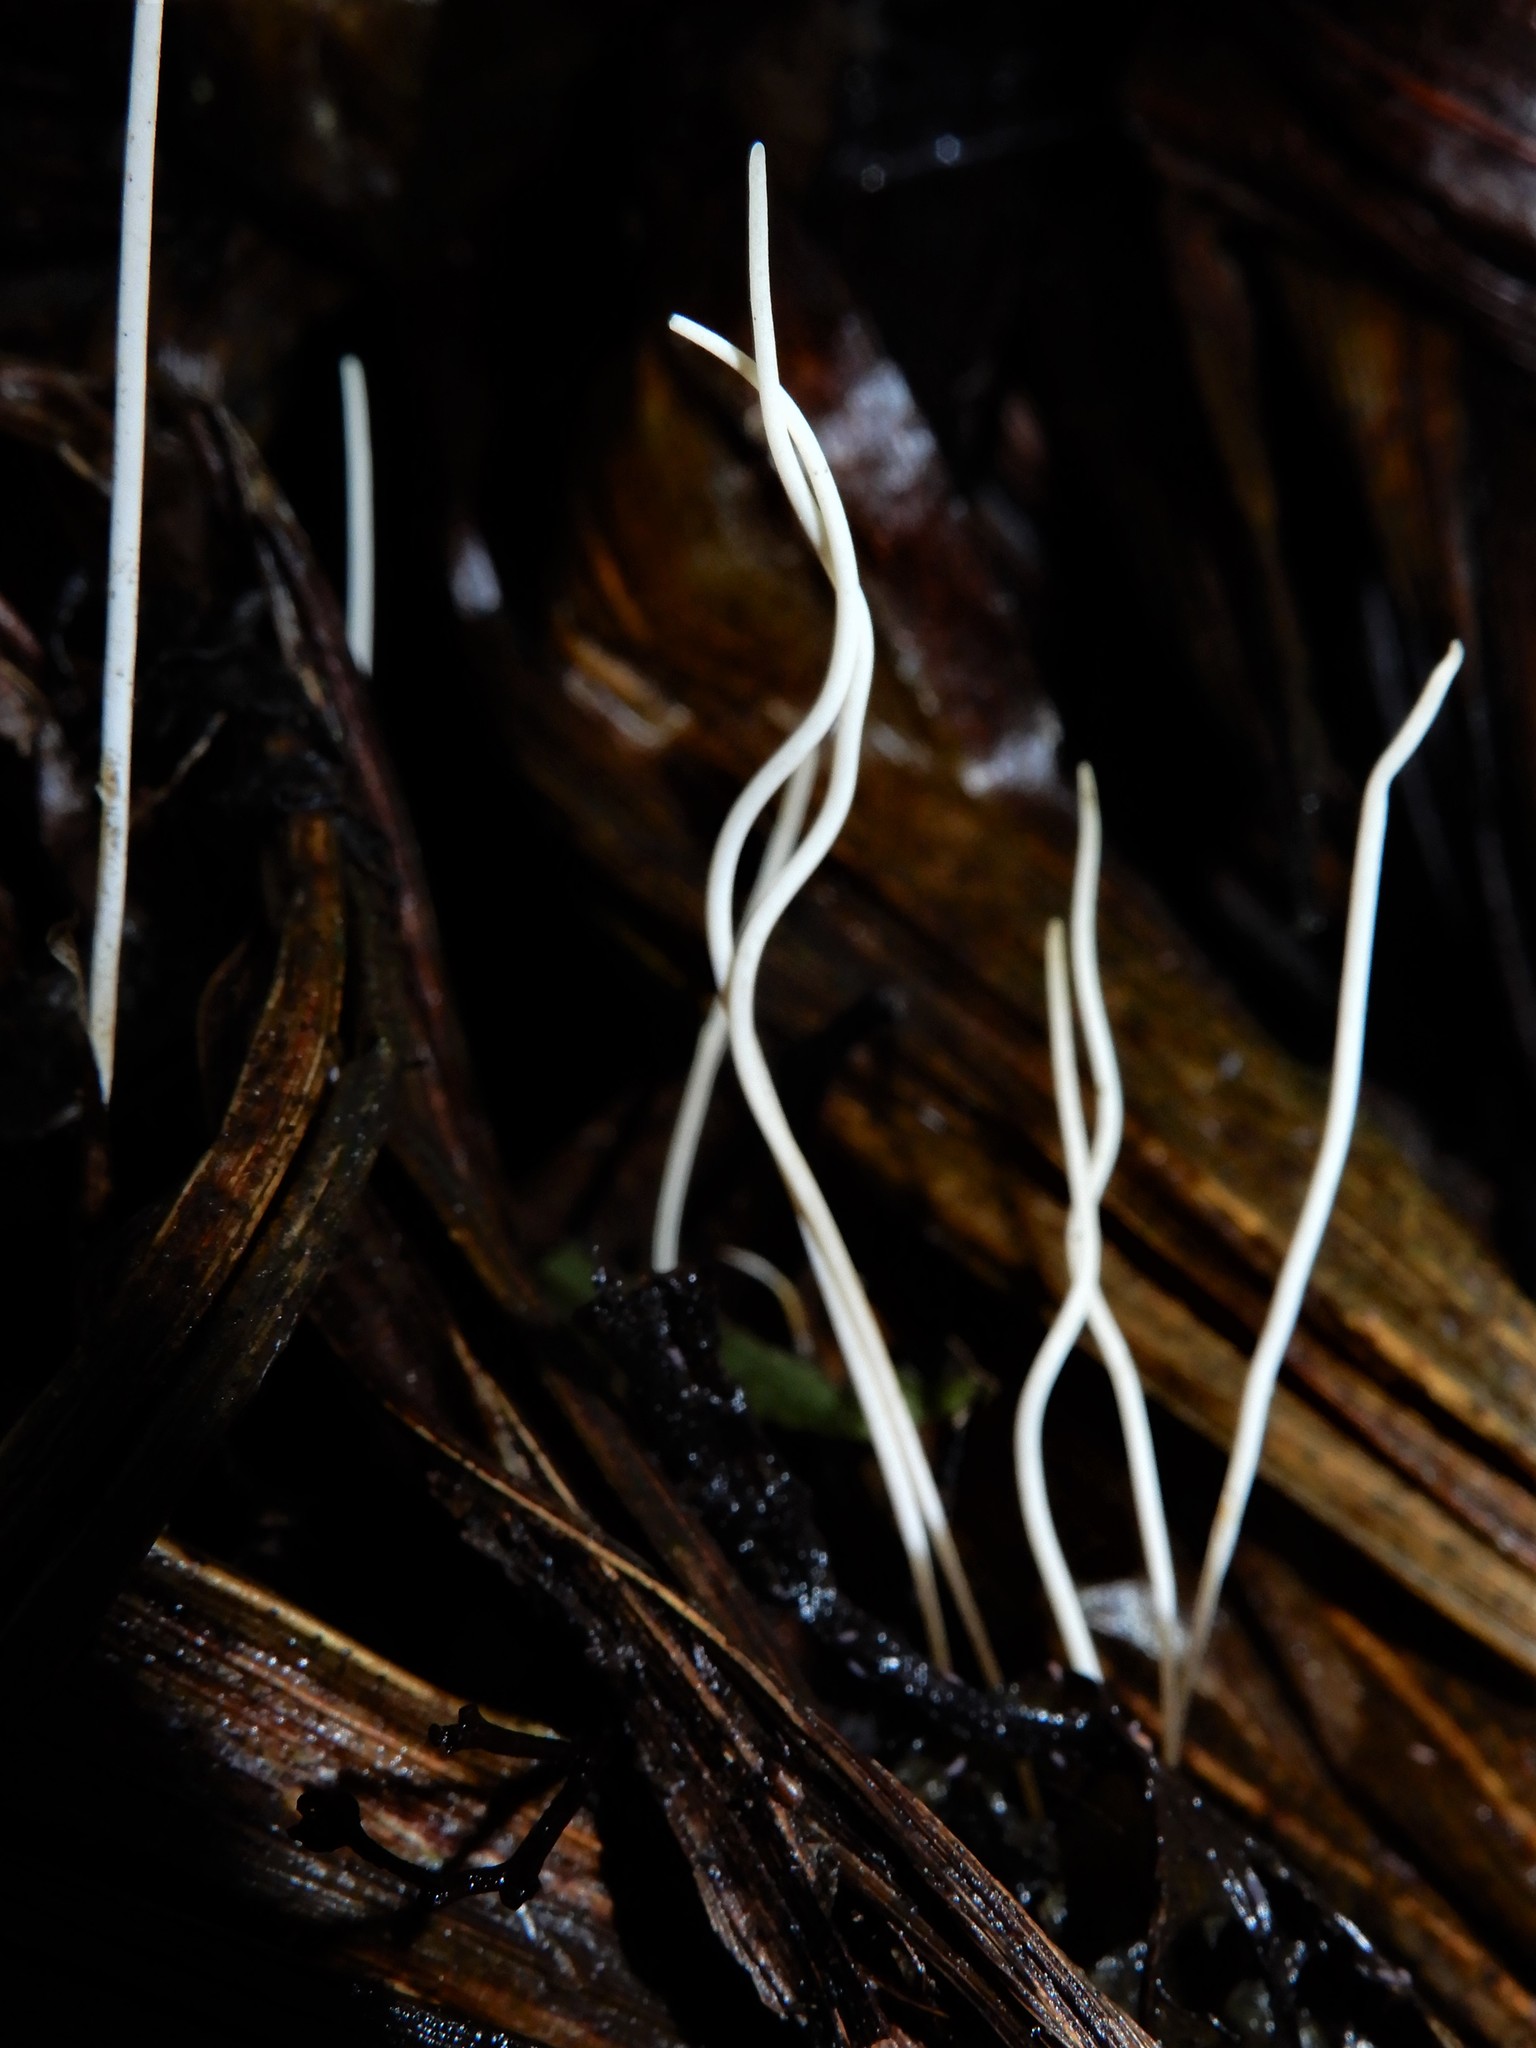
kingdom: Fungi
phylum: Basidiomycota
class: Agaricomycetes
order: Agaricales
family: Typhulaceae
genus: Macrotyphula
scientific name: Macrotyphula defibulata
